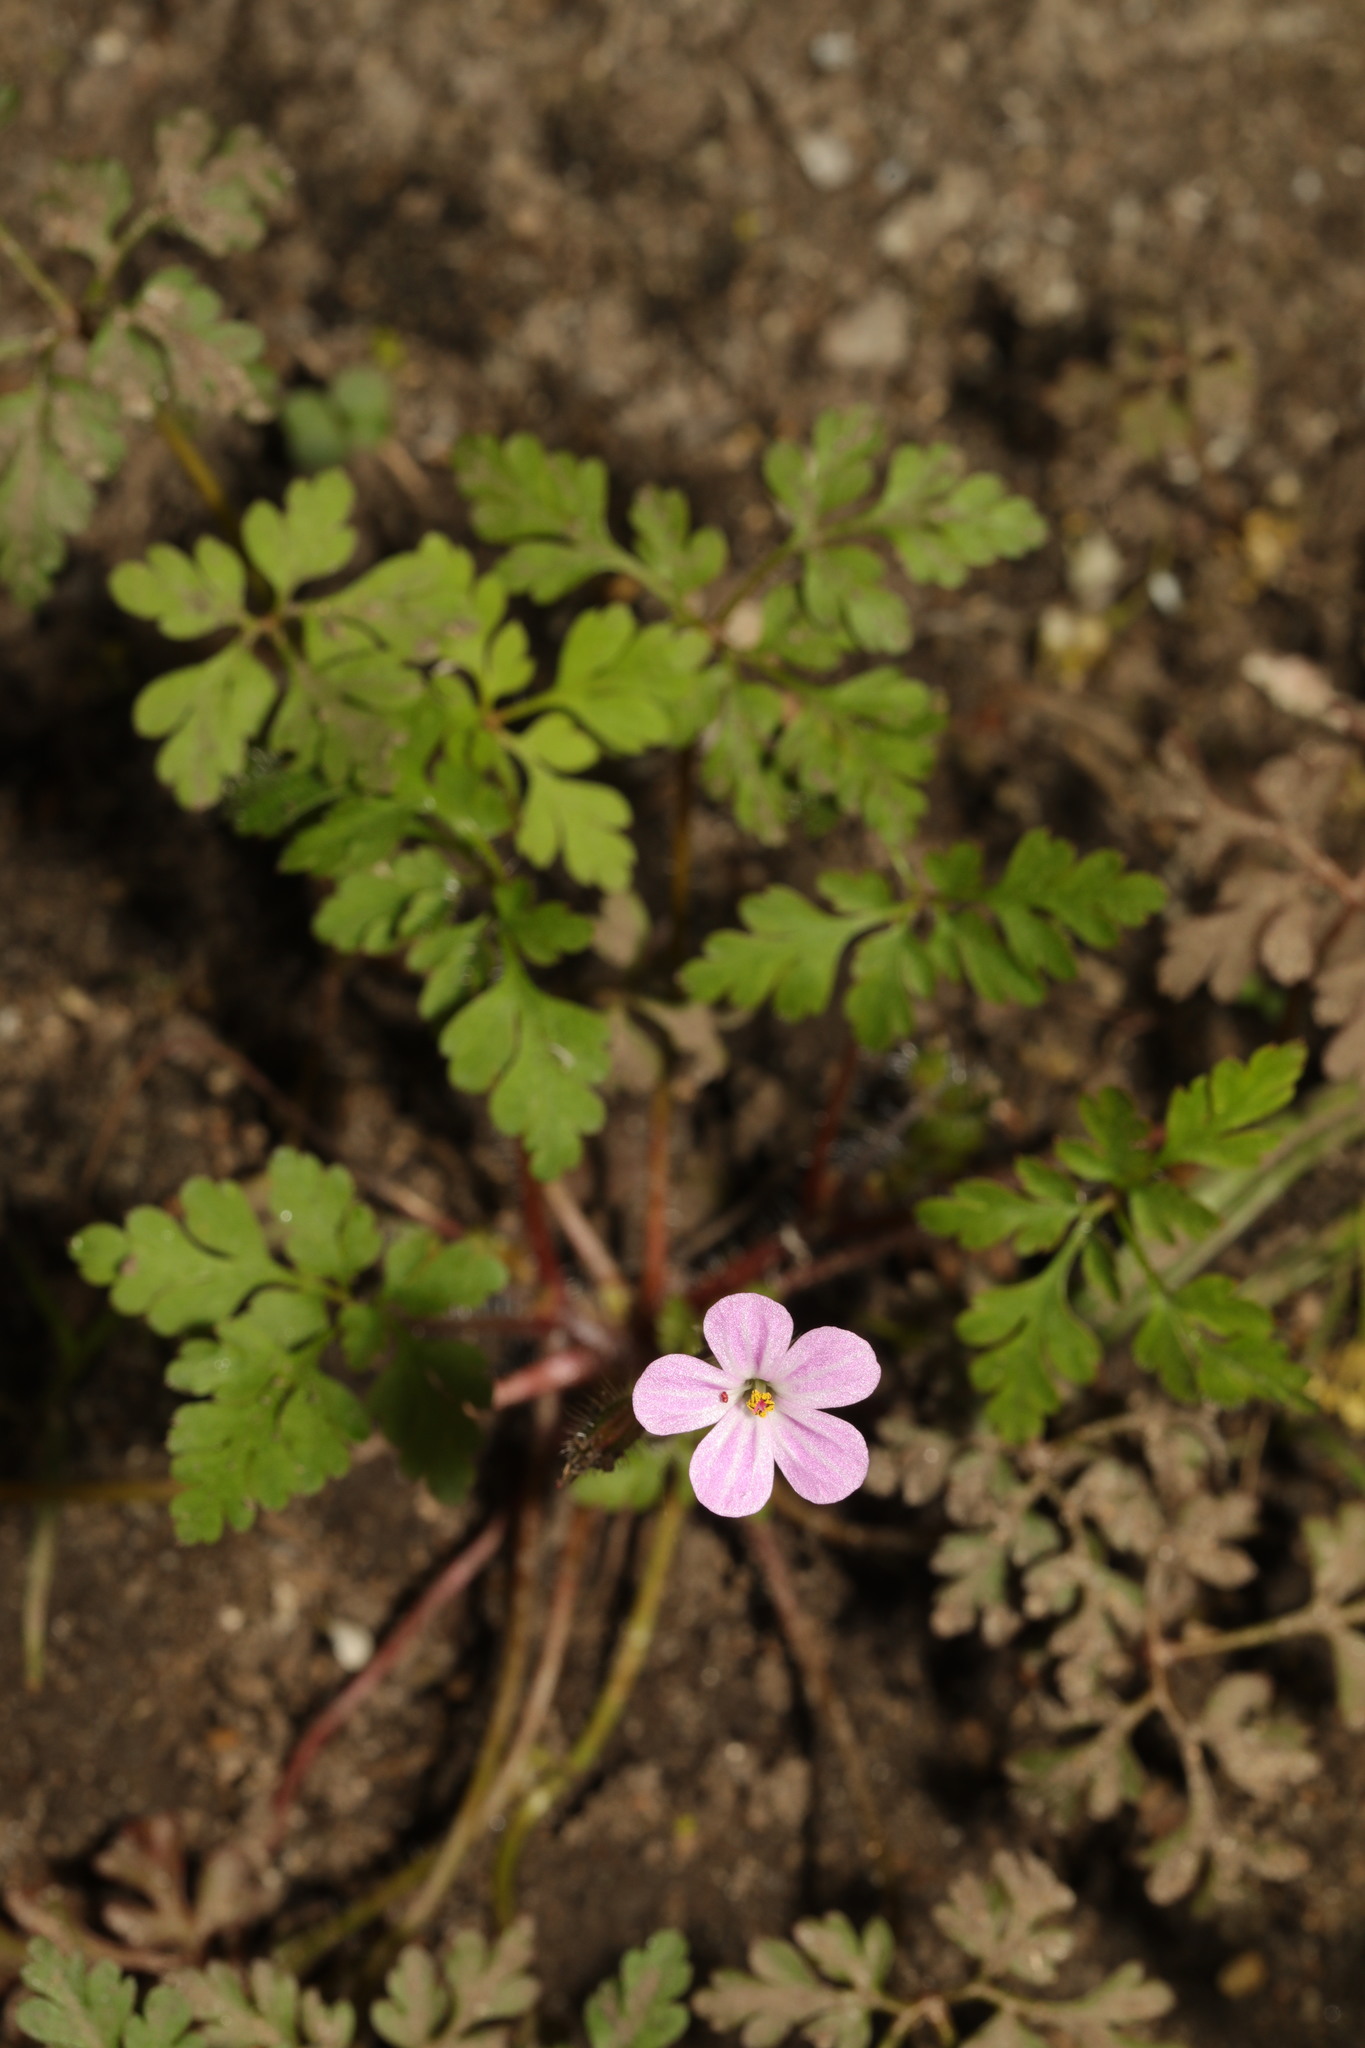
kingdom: Plantae
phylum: Tracheophyta
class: Magnoliopsida
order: Geraniales
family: Geraniaceae
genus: Geranium
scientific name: Geranium robertianum
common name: Herb-robert
